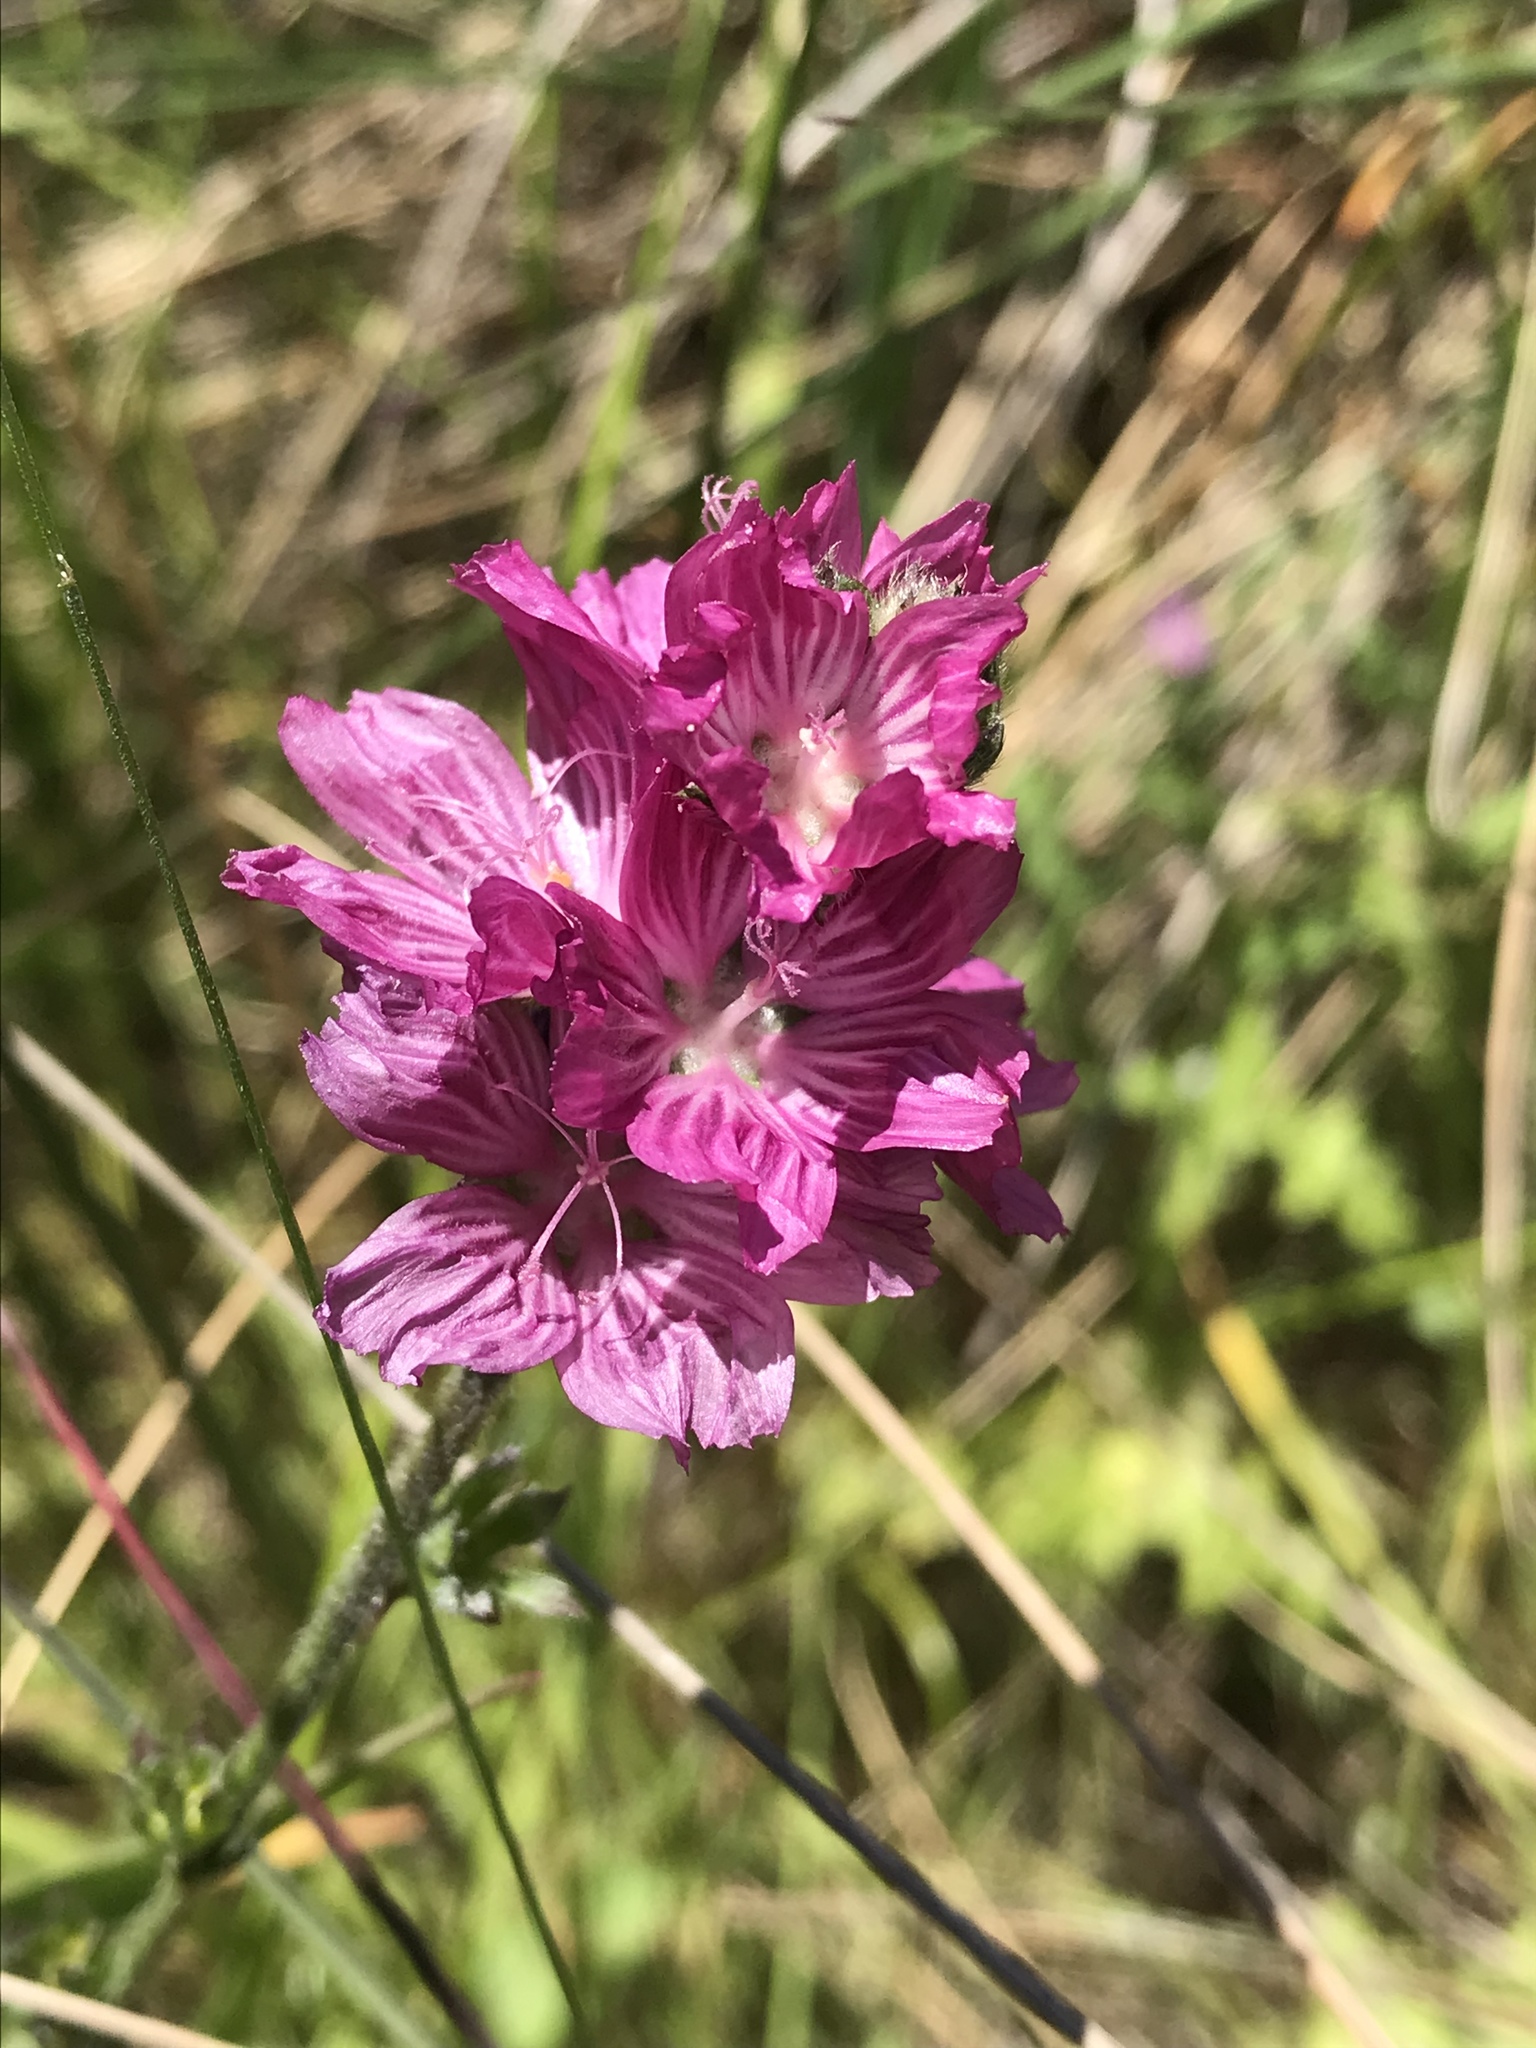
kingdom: Plantae
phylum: Tracheophyta
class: Magnoliopsida
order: Malvales
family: Malvaceae
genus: Sidalcea
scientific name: Sidalcea malviflora
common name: Greek mallow
